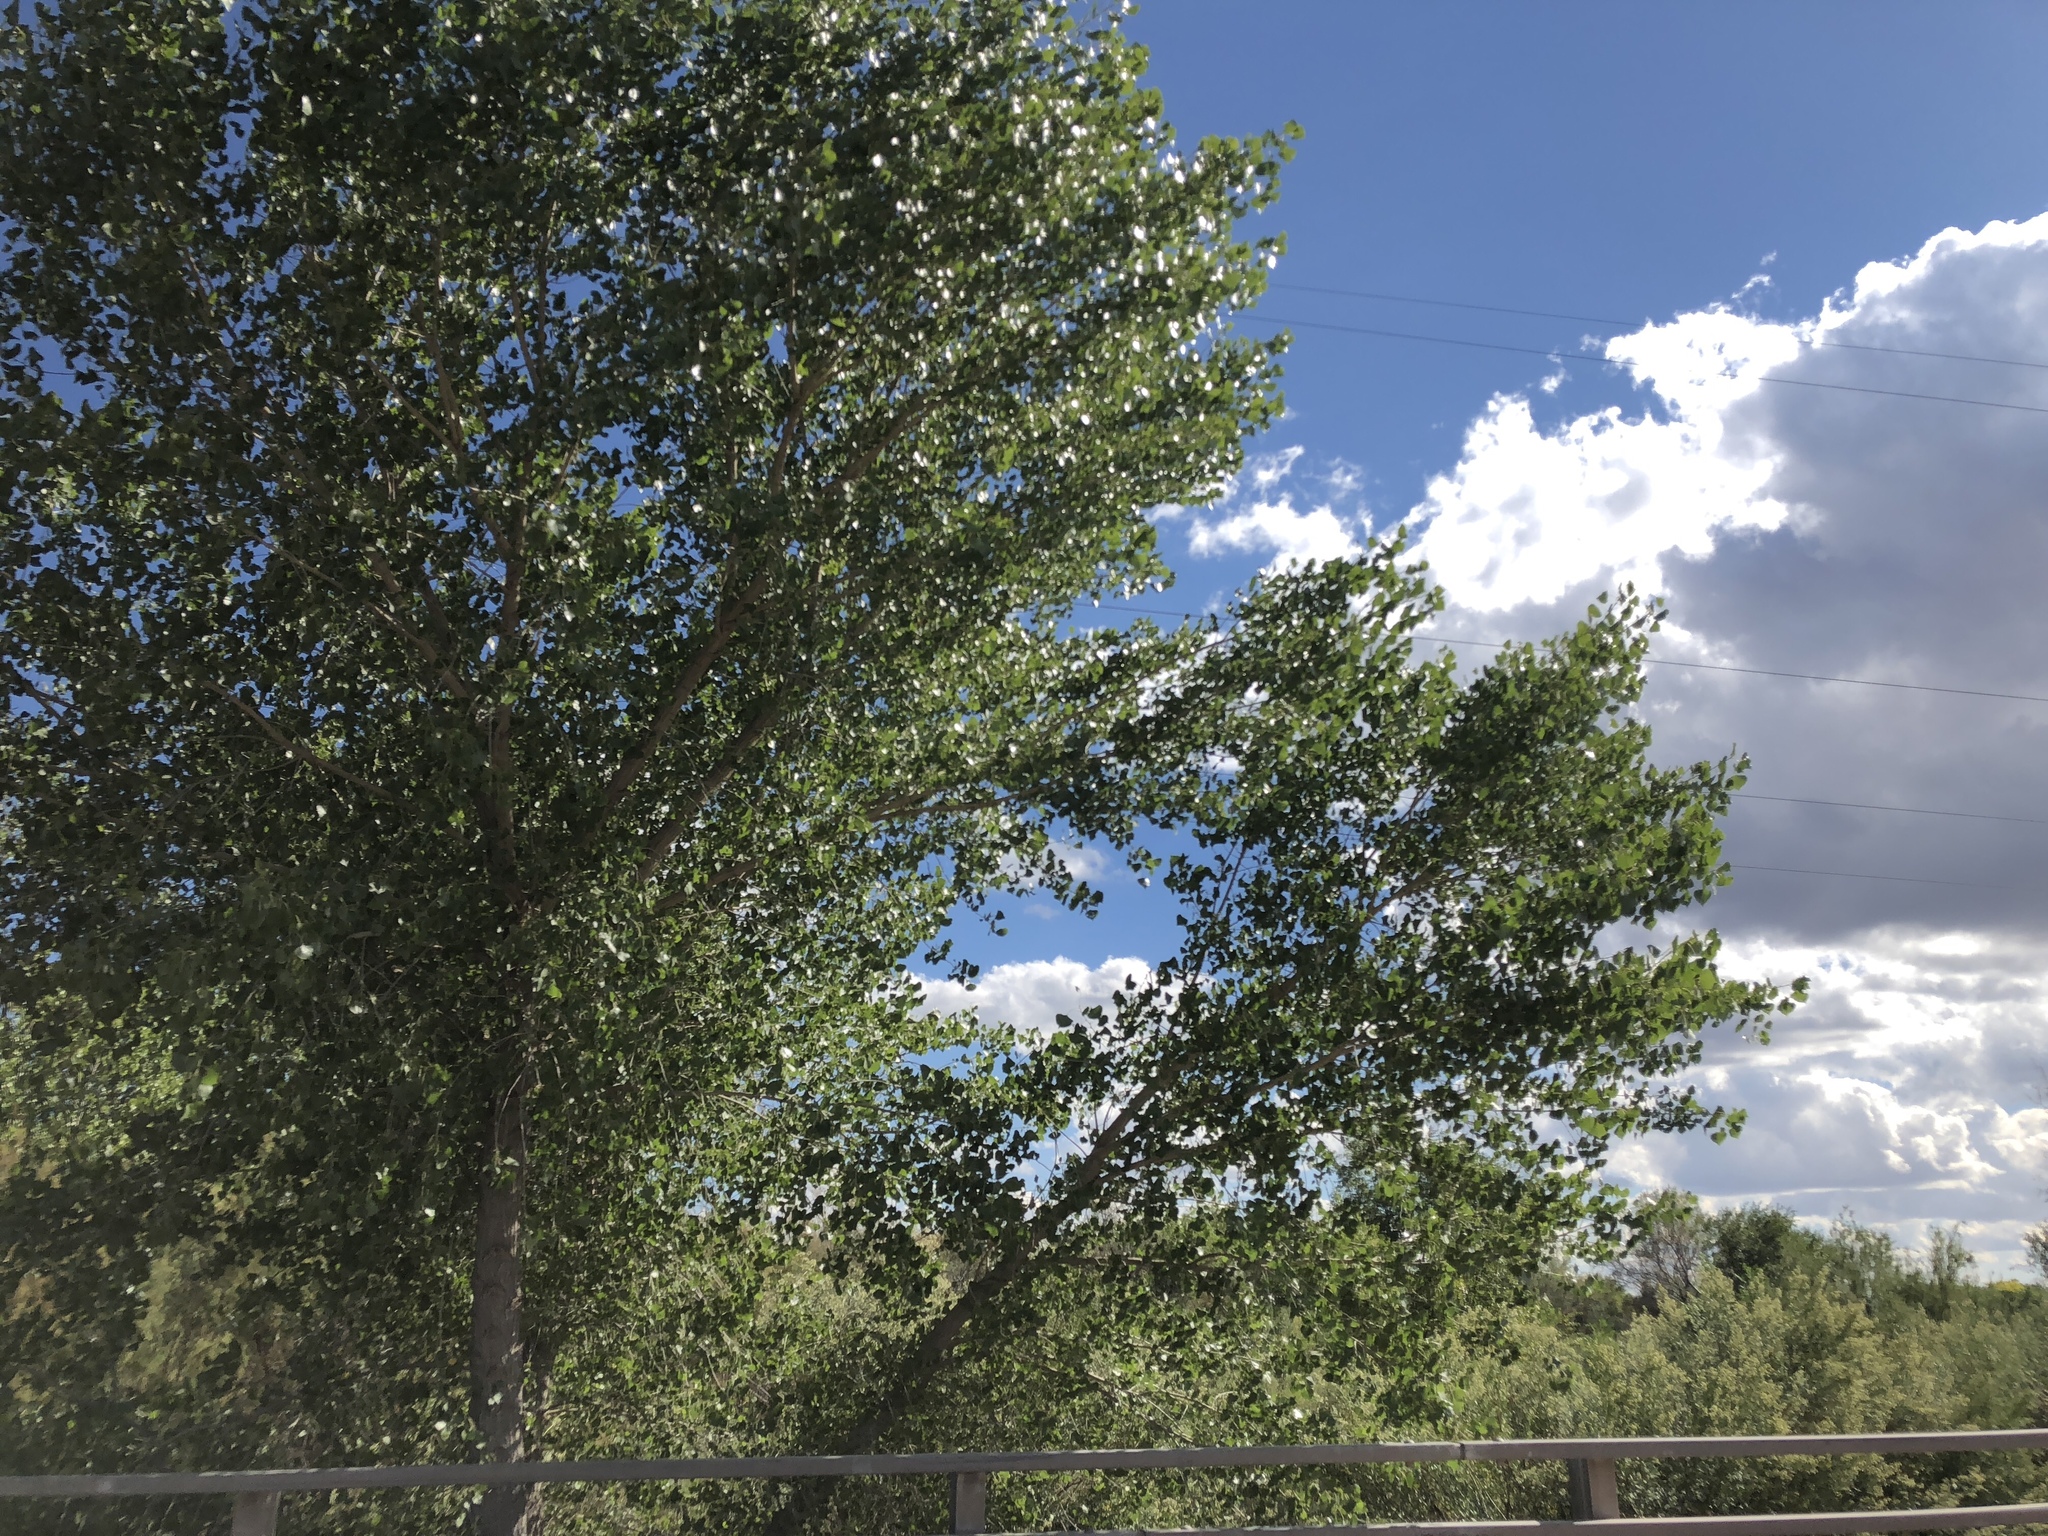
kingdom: Plantae
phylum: Tracheophyta
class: Magnoliopsida
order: Malpighiales
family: Salicaceae
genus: Populus
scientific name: Populus fremontii
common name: Fremont's cottonwood
